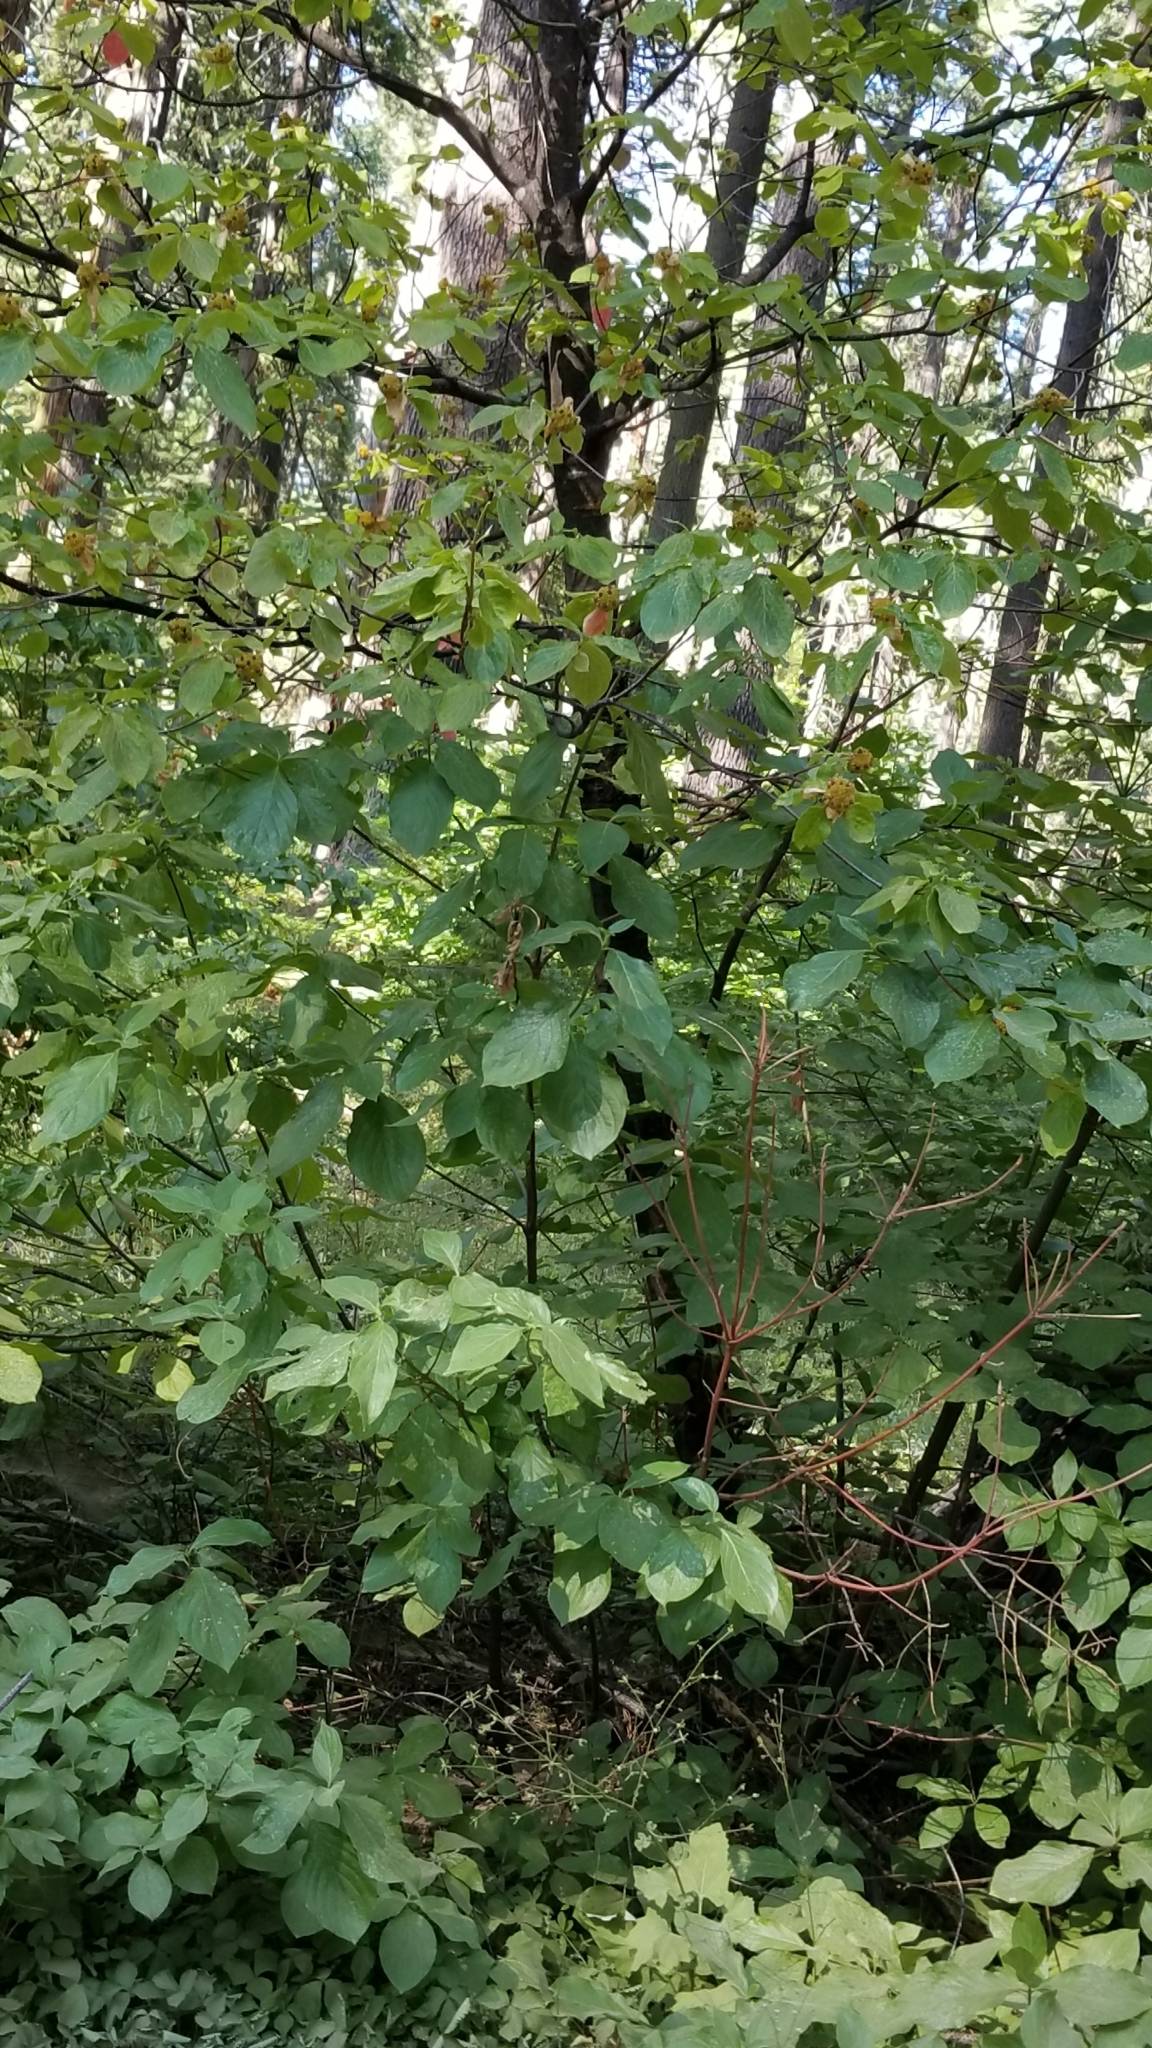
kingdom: Plantae
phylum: Tracheophyta
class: Magnoliopsida
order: Cornales
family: Cornaceae
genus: Cornus
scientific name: Cornus nuttallii
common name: Pacific dogwood
